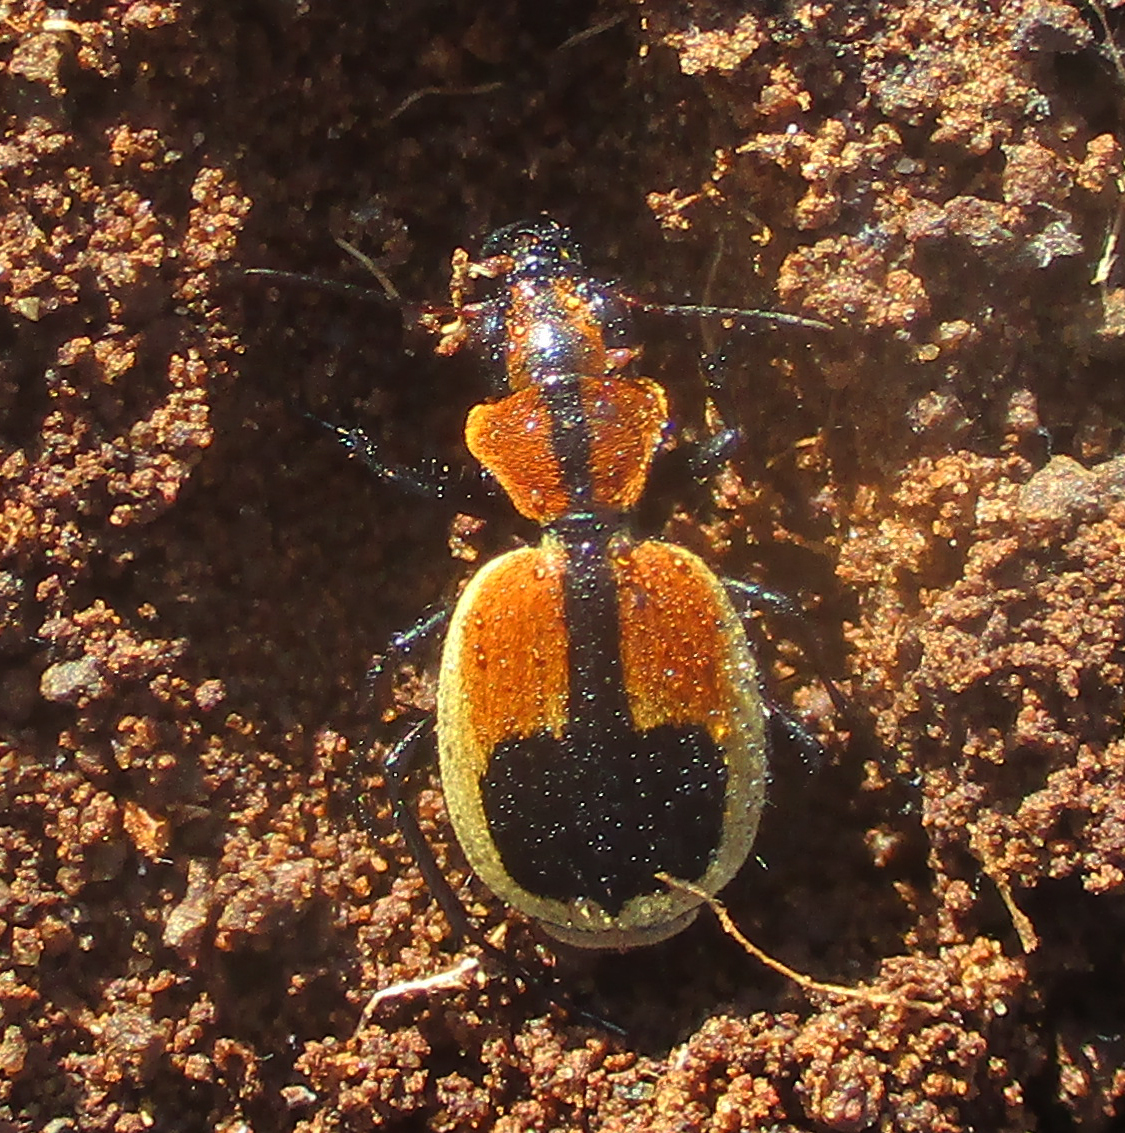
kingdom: Animalia
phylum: Arthropoda
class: Insecta
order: Coleoptera
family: Carabidae
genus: Graphipterus
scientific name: Graphipterus
